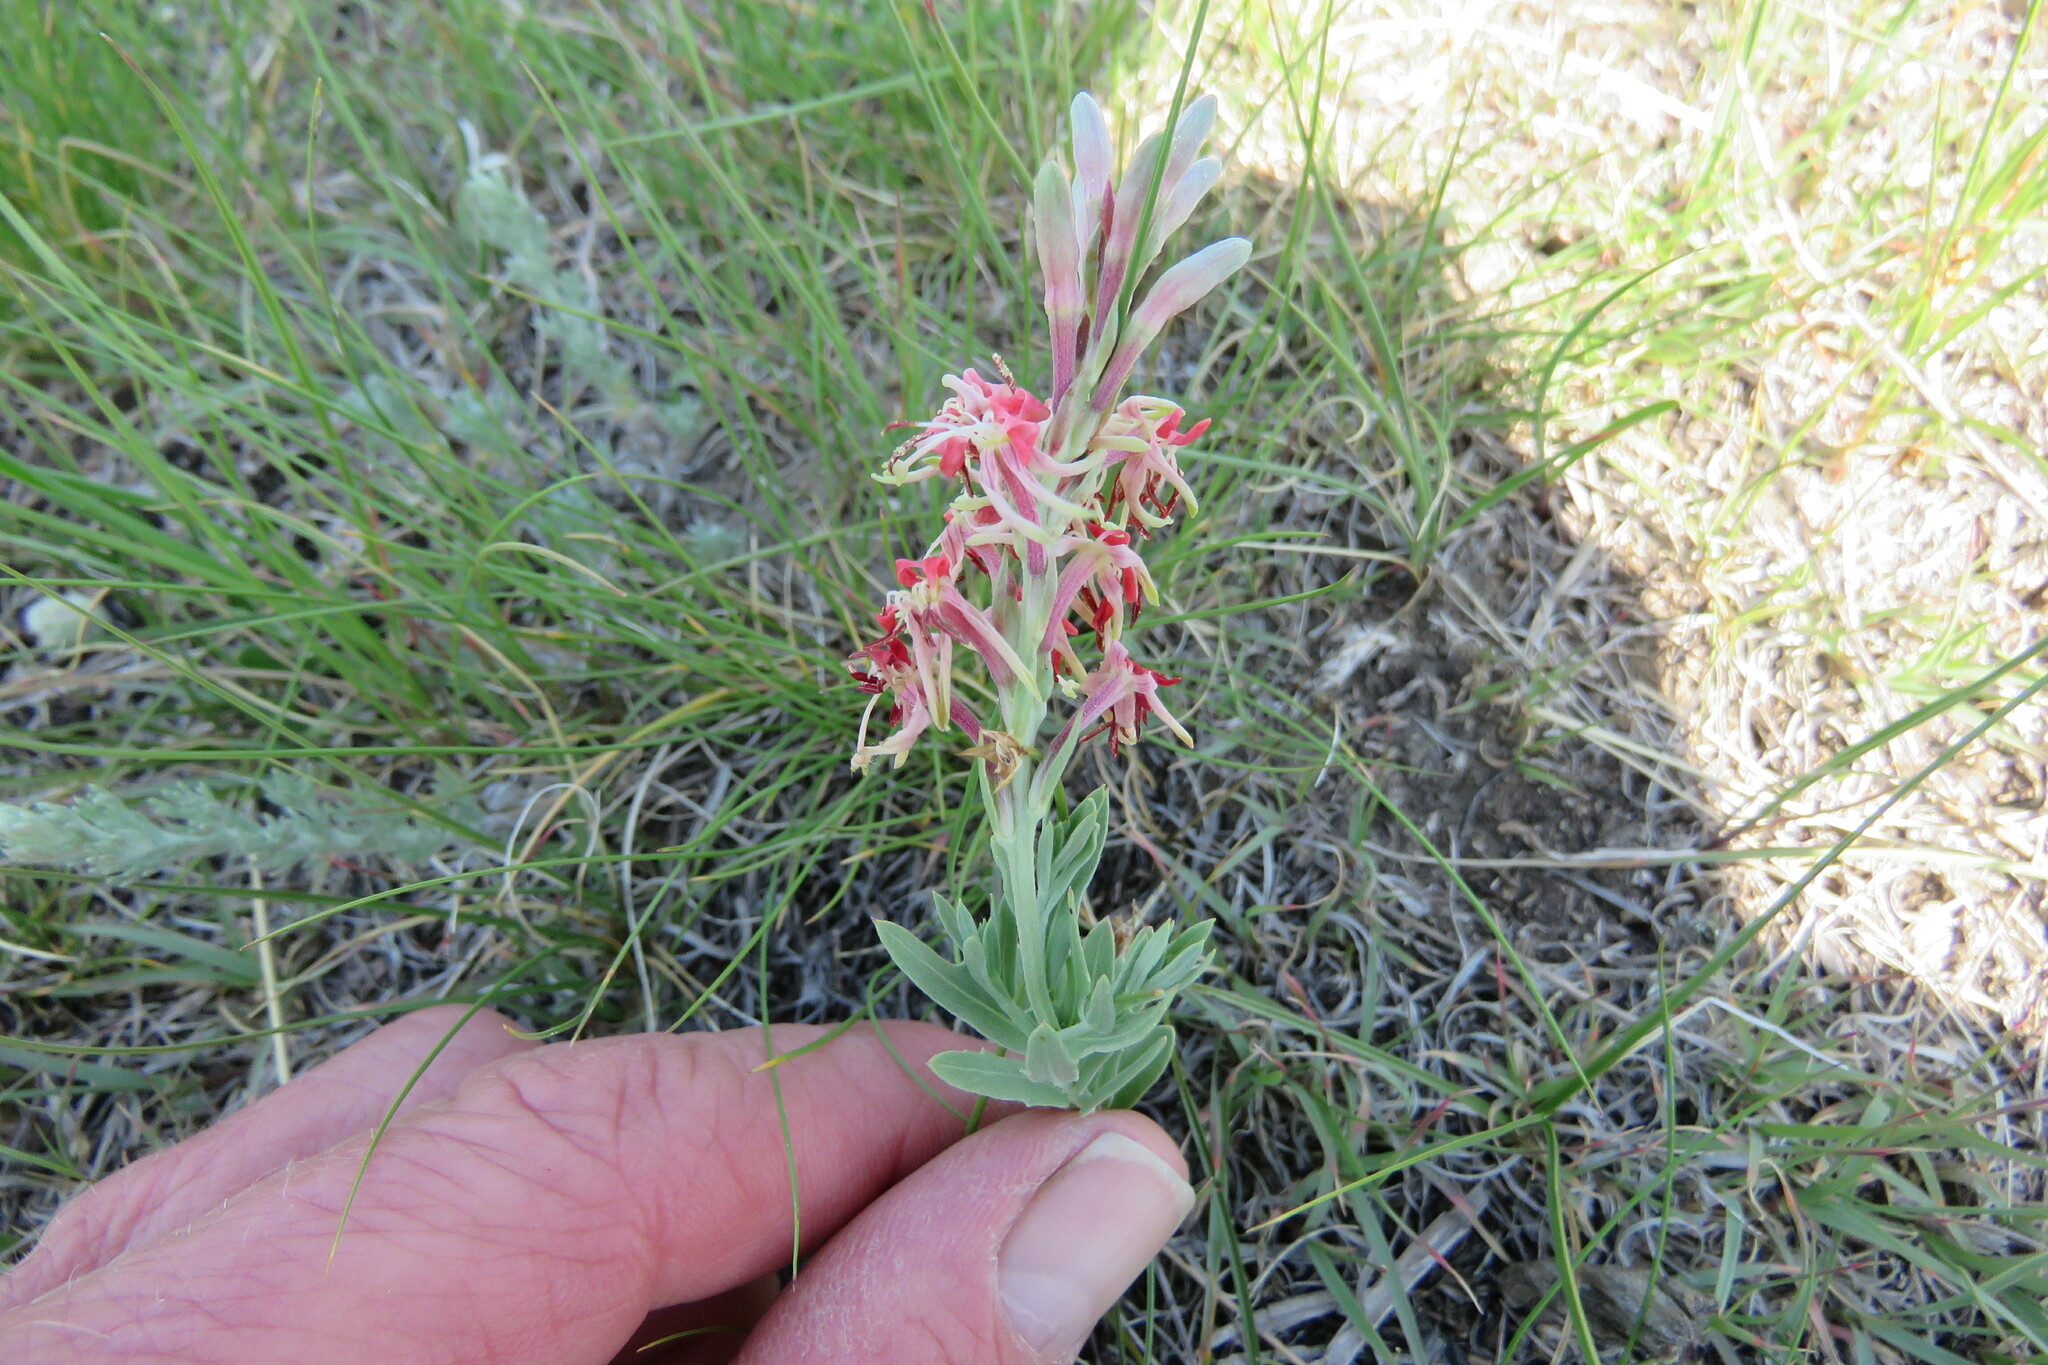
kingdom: Plantae
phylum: Tracheophyta
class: Magnoliopsida
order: Myrtales
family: Onagraceae
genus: Oenothera
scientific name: Oenothera suffrutescens
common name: Scarlet beeblossom
